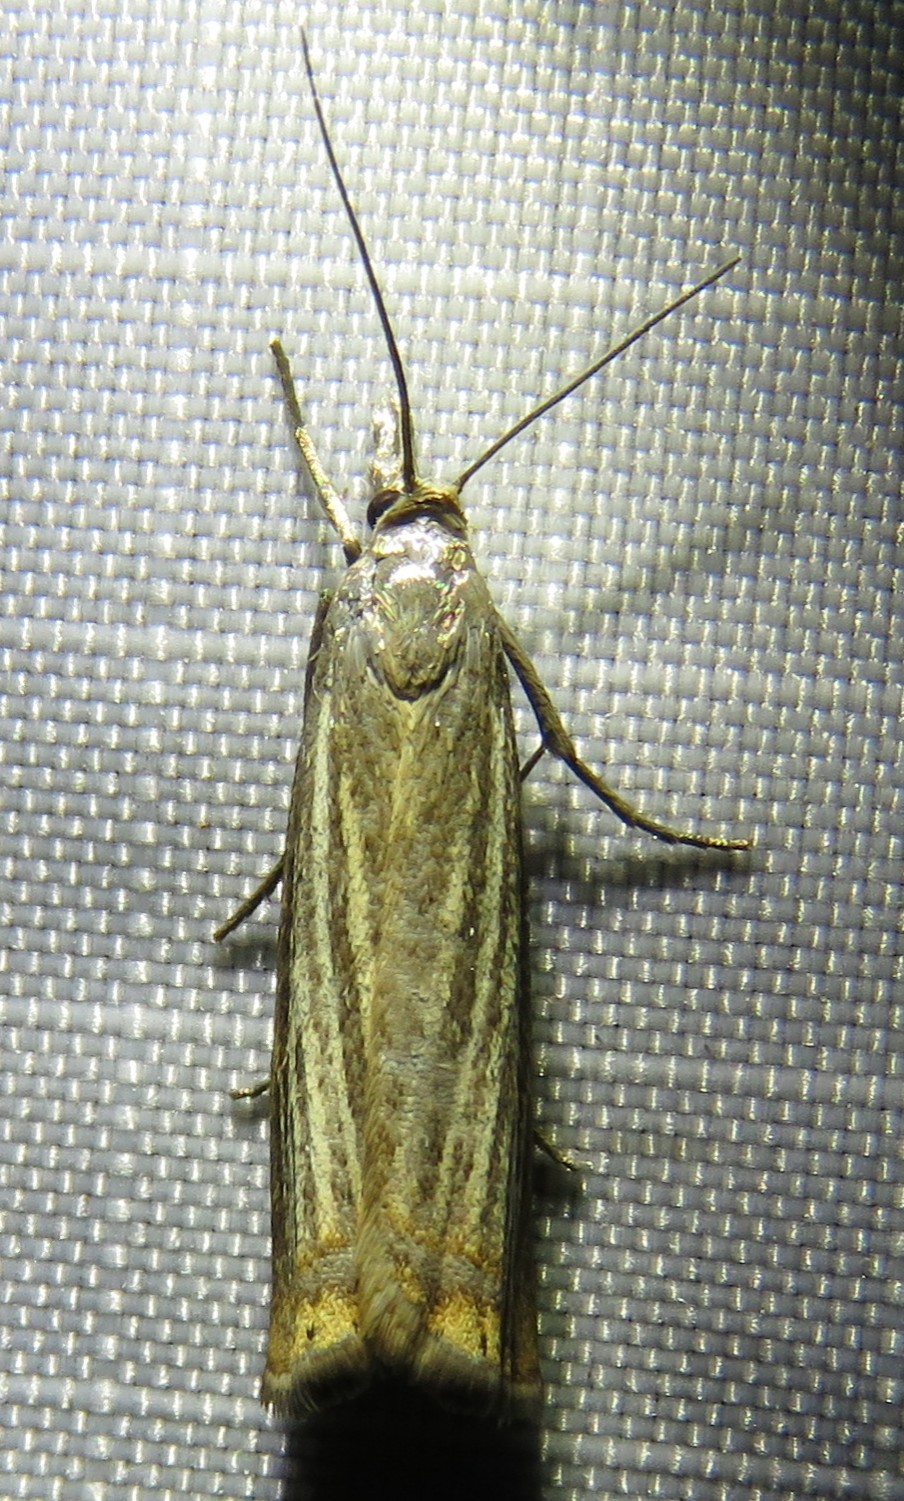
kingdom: Animalia
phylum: Arthropoda
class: Insecta
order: Lepidoptera
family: Crambidae
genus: Chrysoteuchia
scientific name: Chrysoteuchia culmella
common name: Garden grass-veneer
